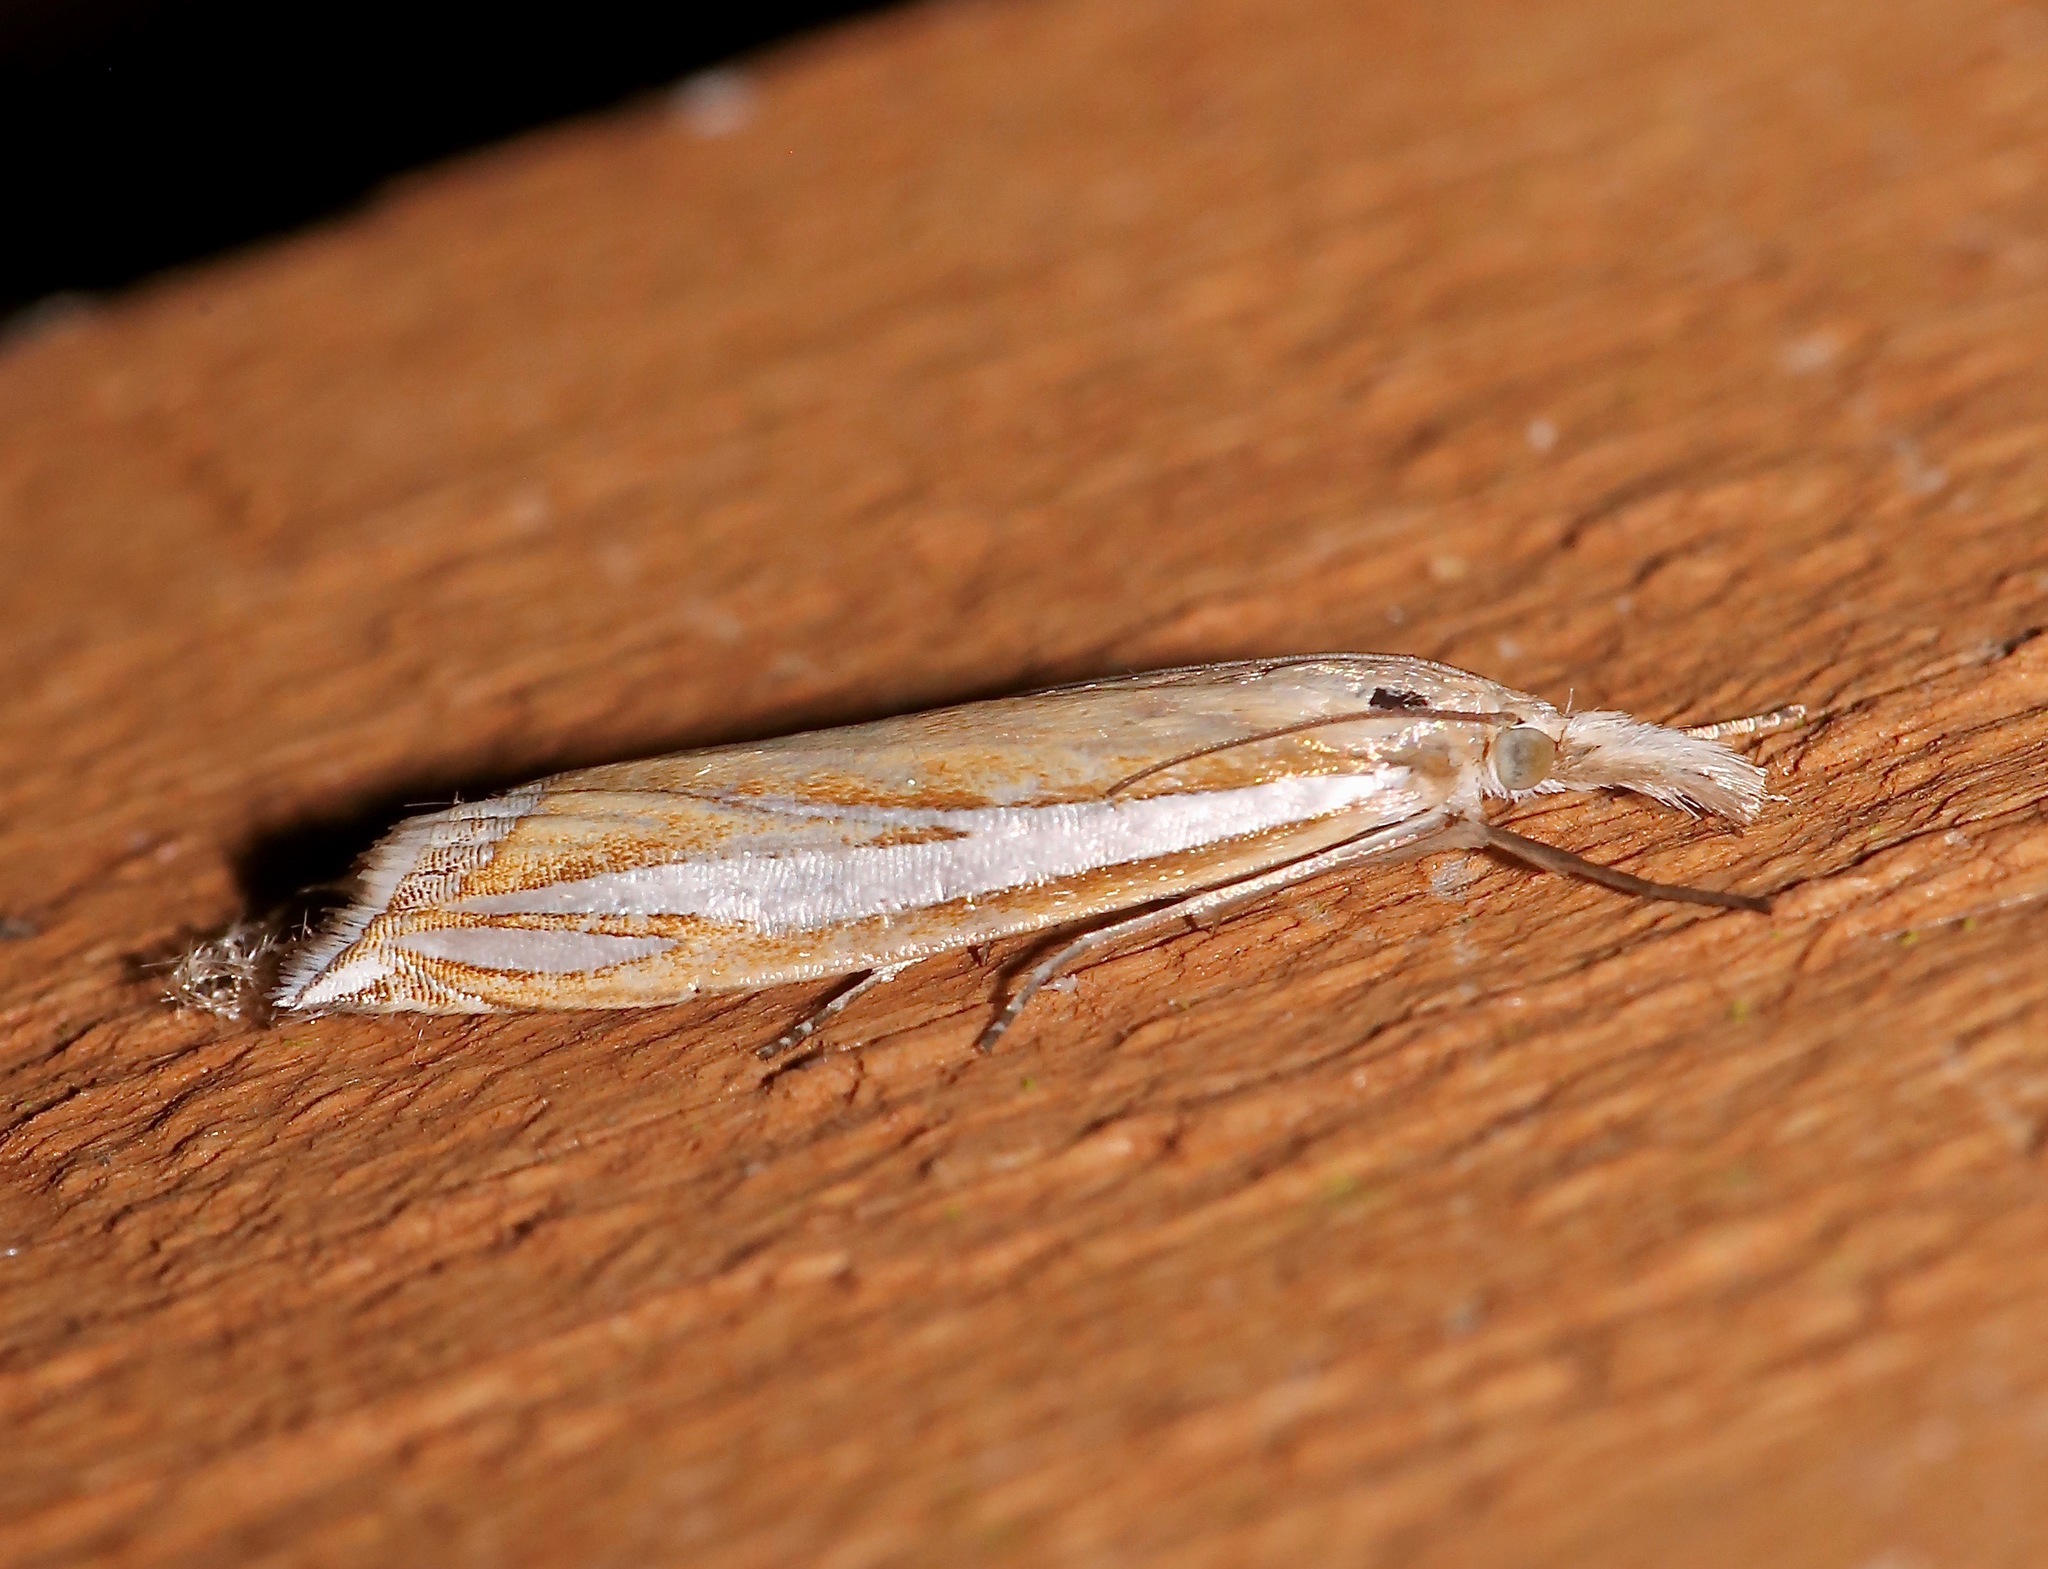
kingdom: Animalia
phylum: Arthropoda
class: Insecta
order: Lepidoptera
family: Crambidae
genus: Crambus
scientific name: Crambus satrapellus
